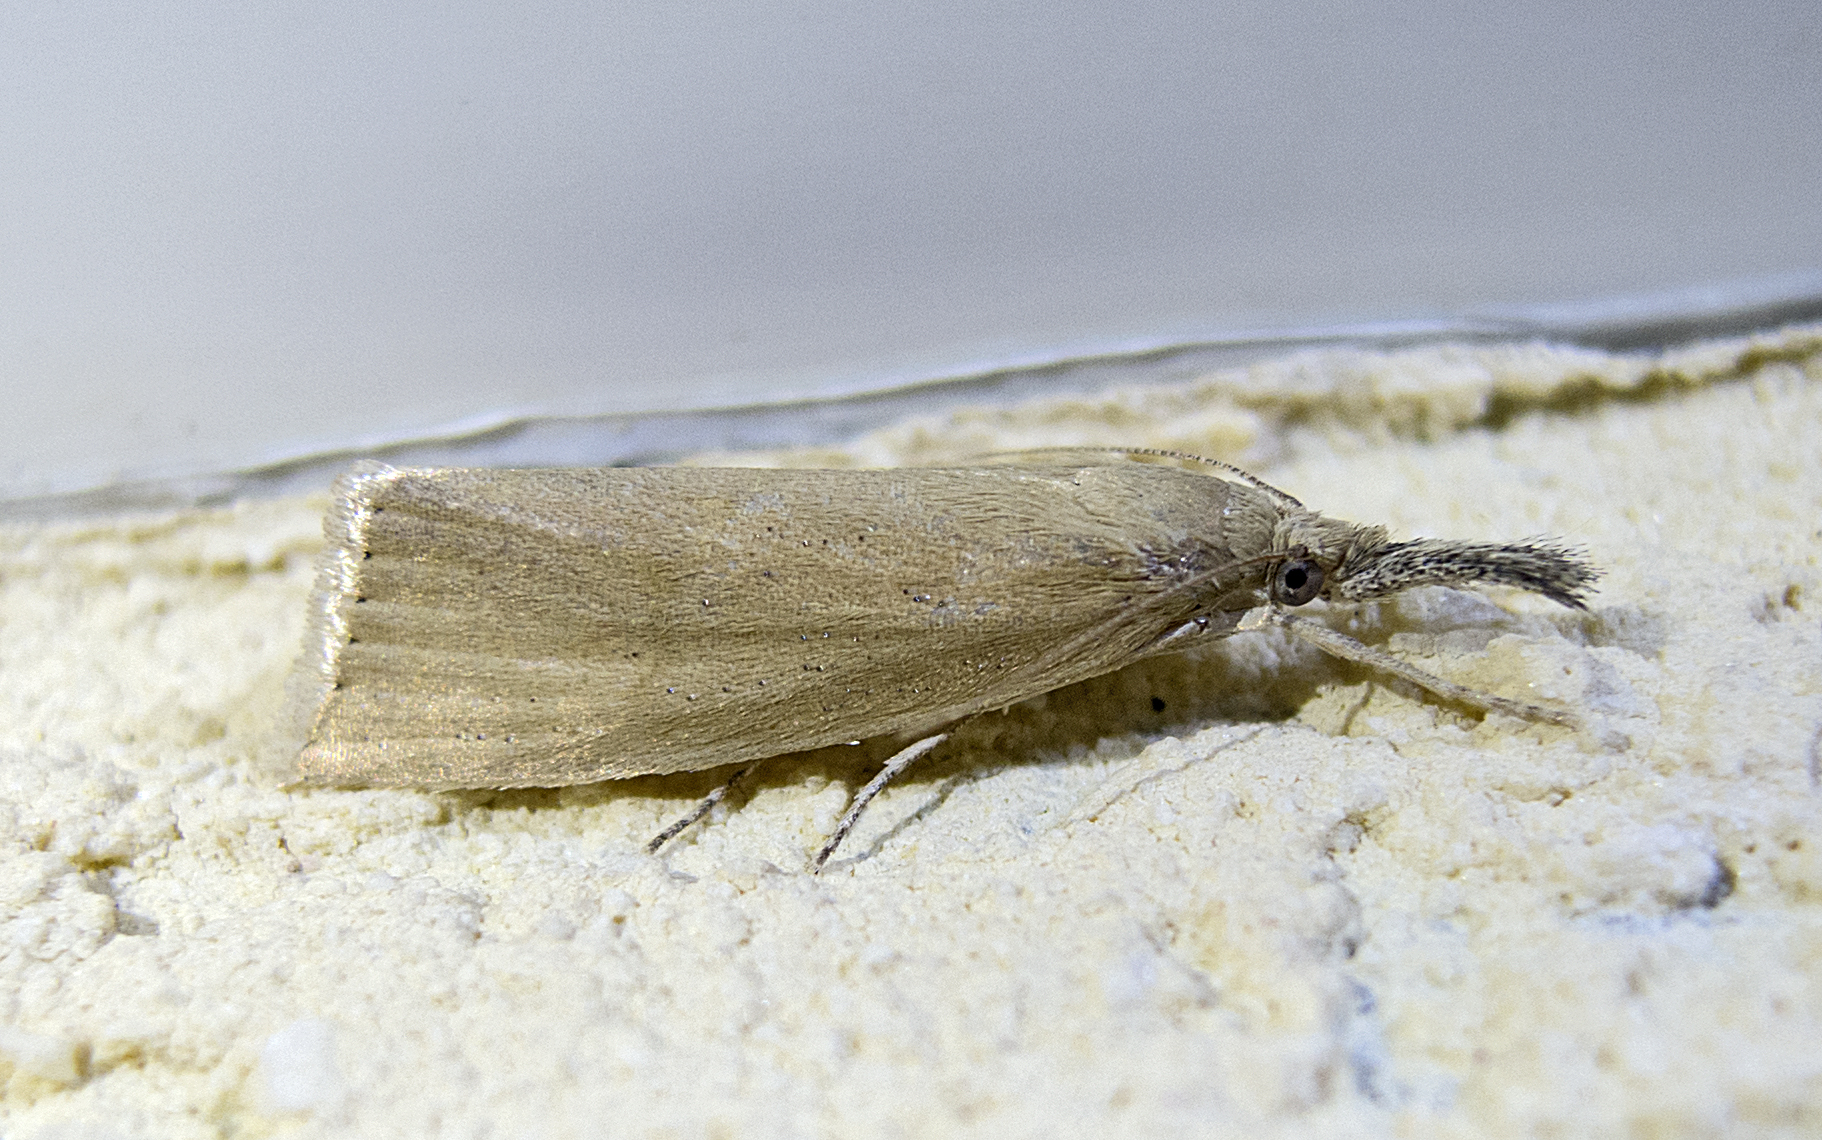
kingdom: Animalia
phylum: Arthropoda
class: Insecta
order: Lepidoptera
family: Crambidae
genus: Chilo
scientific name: Chilo luteellus
